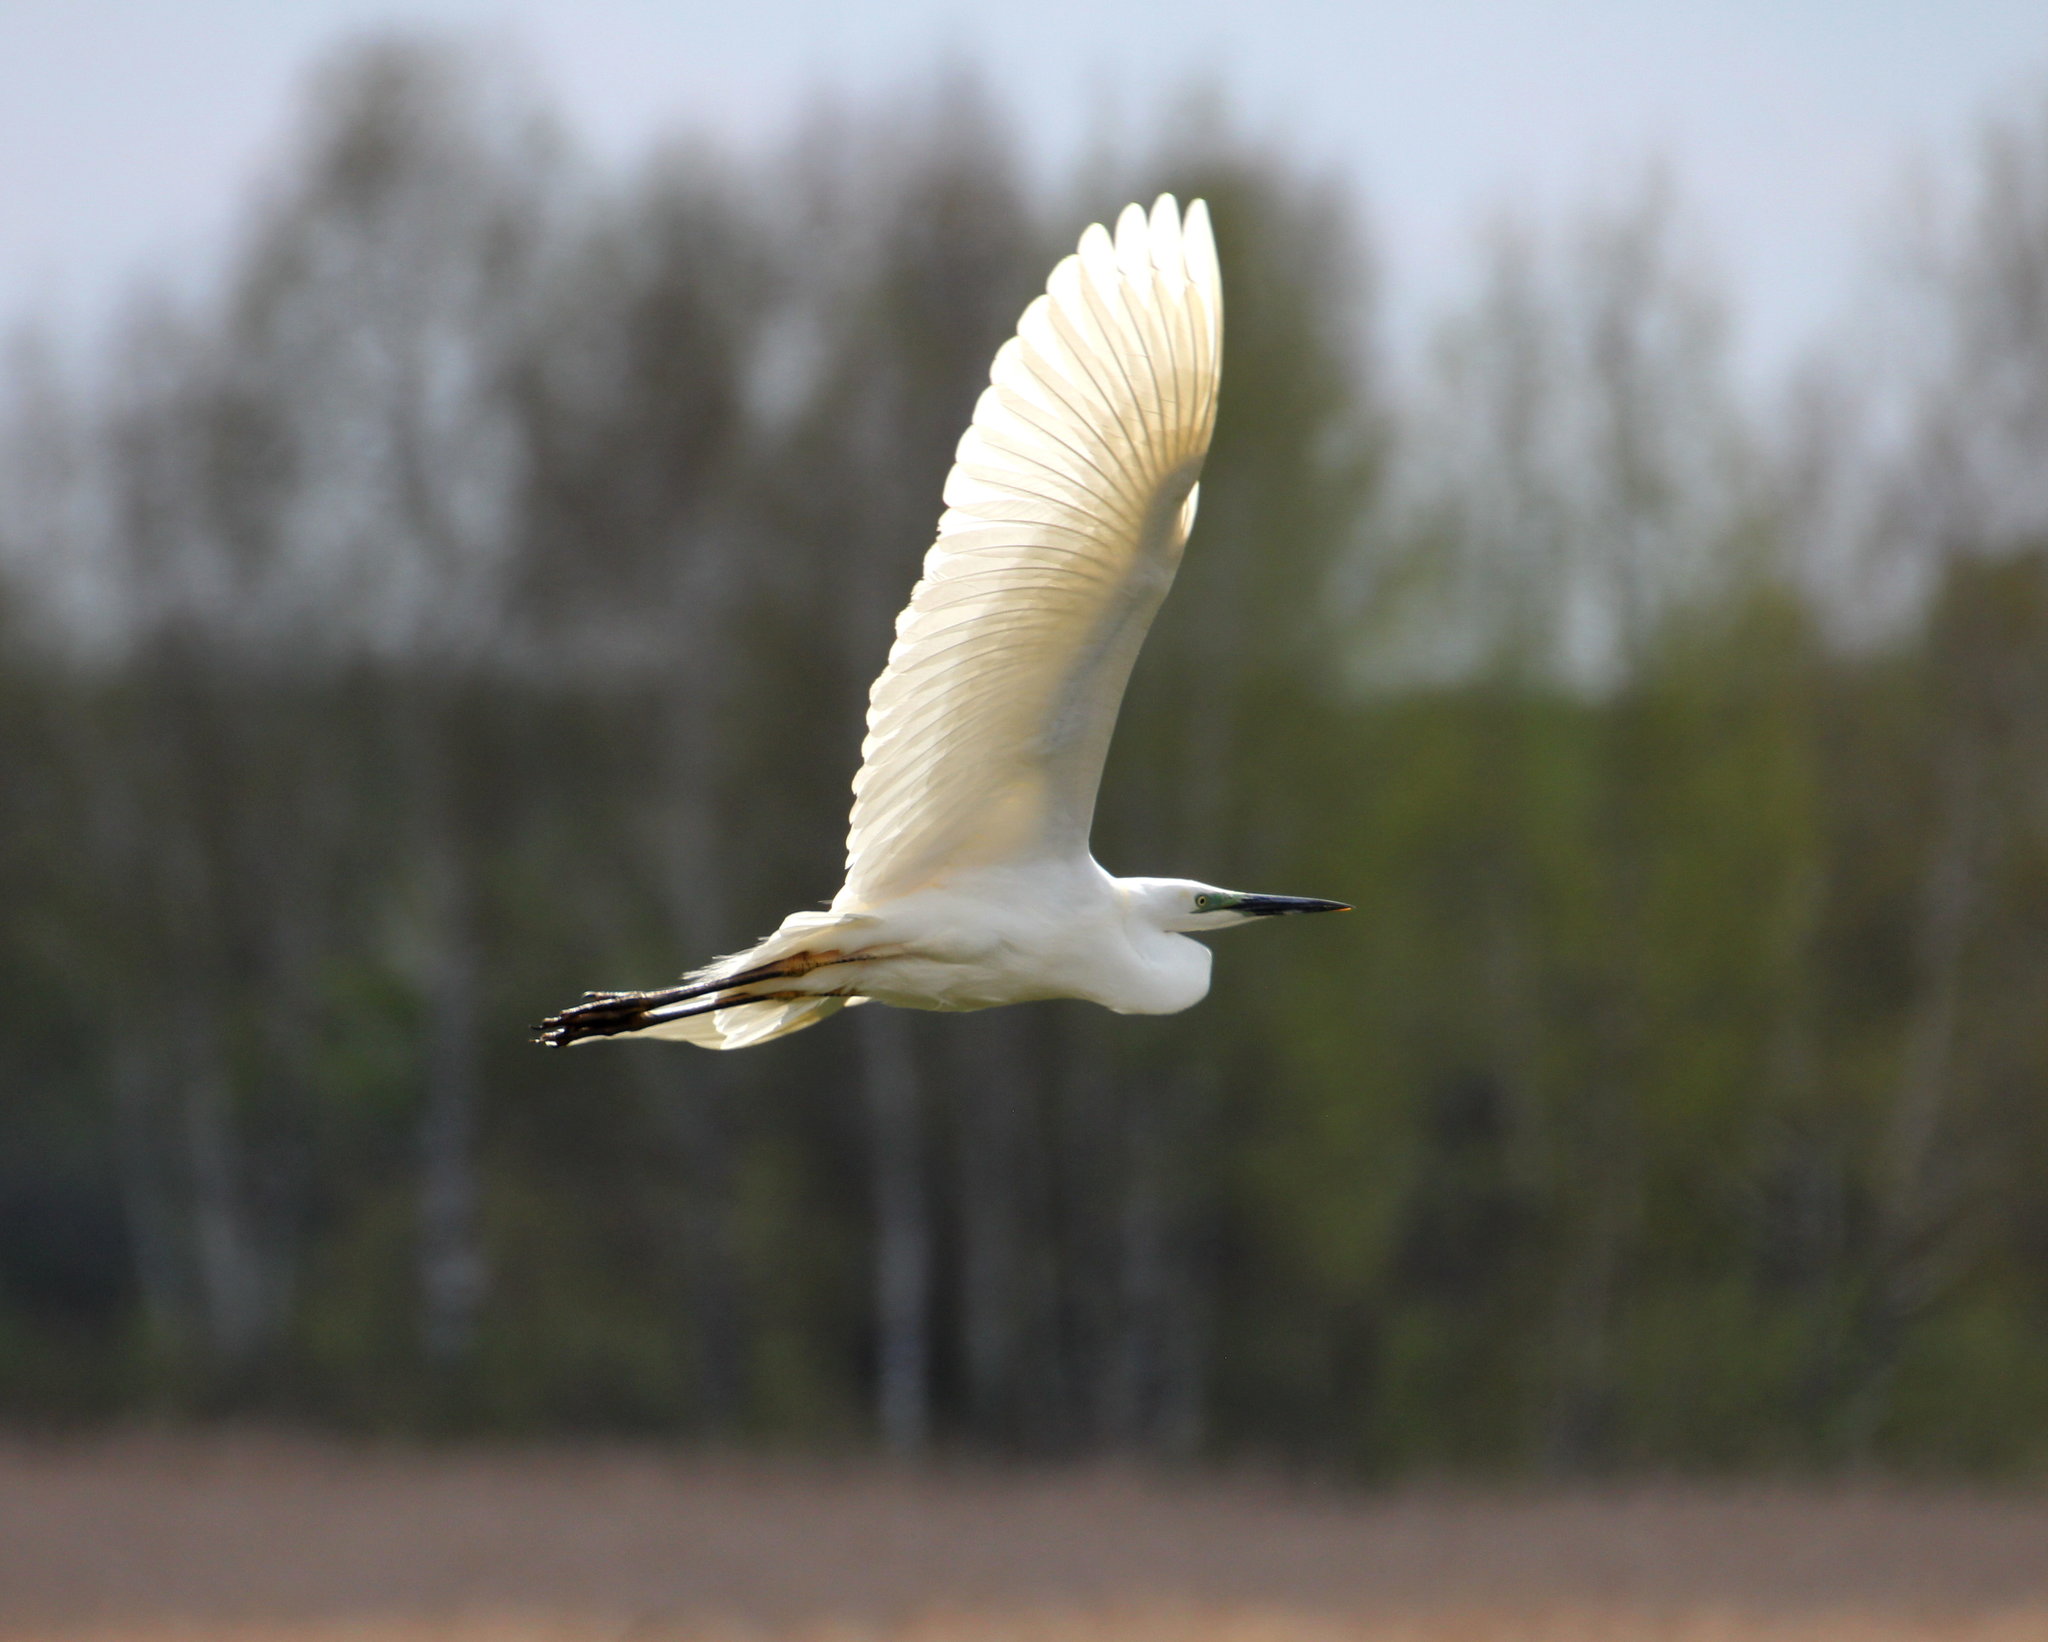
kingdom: Animalia
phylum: Chordata
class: Aves
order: Pelecaniformes
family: Ardeidae
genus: Ardea
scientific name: Ardea alba
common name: Great egret
